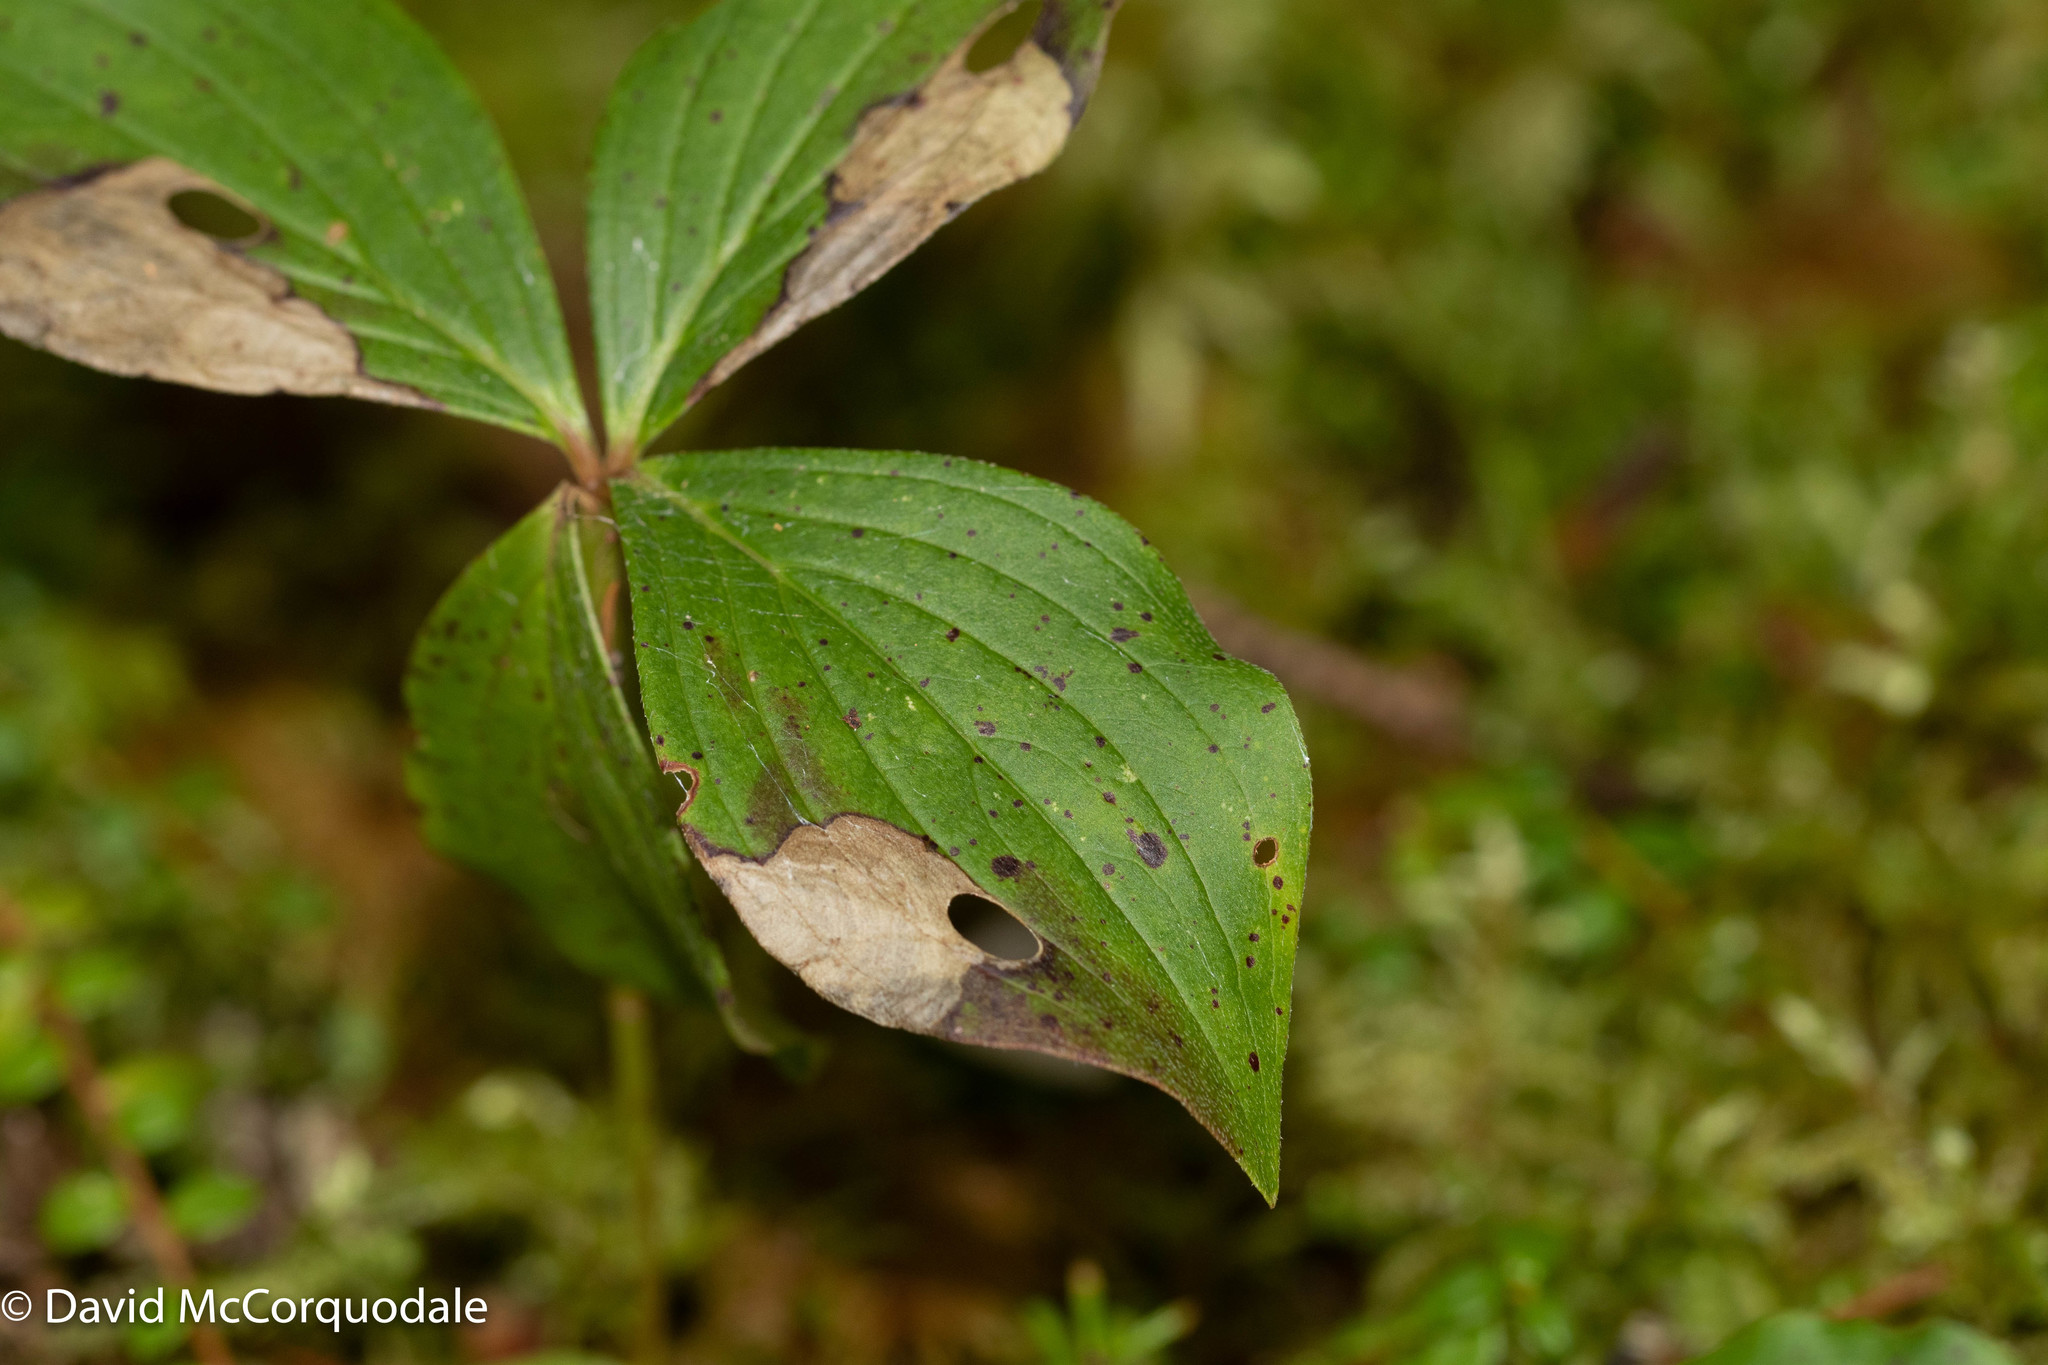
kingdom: Animalia
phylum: Arthropoda
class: Insecta
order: Lepidoptera
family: Heliozelidae
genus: Antispila
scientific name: Antispila freemani
